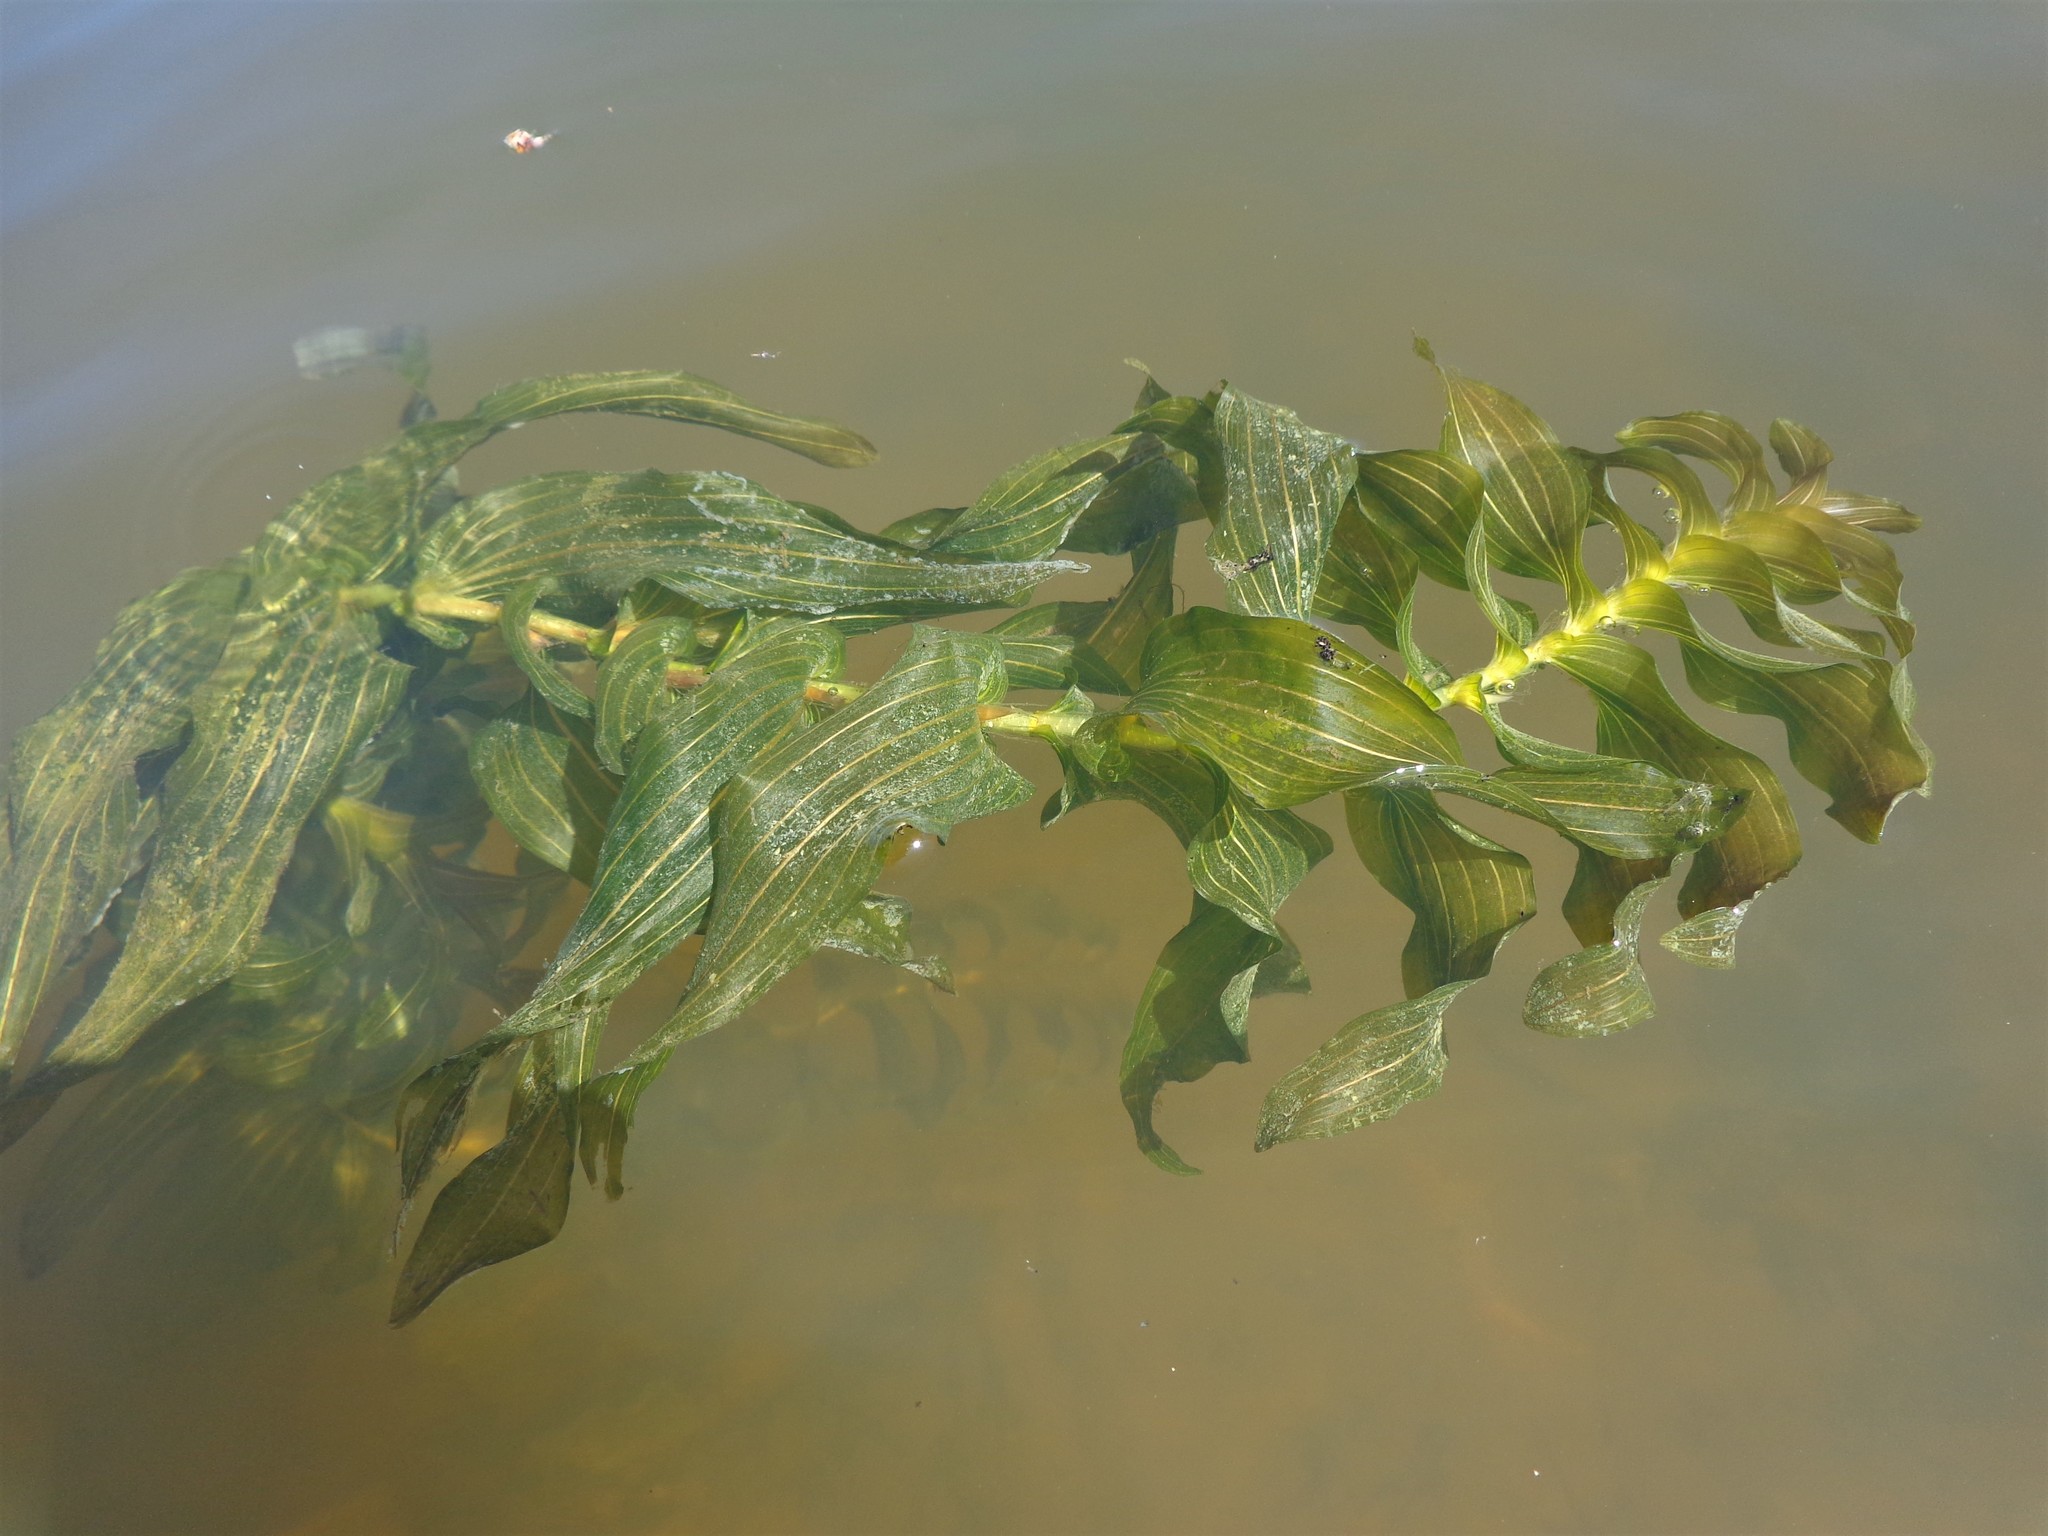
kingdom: Plantae
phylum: Tracheophyta
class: Liliopsida
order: Alismatales
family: Potamogetonaceae
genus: Potamogeton
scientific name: Potamogeton perfoliatus
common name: Perfoliate pondweed
